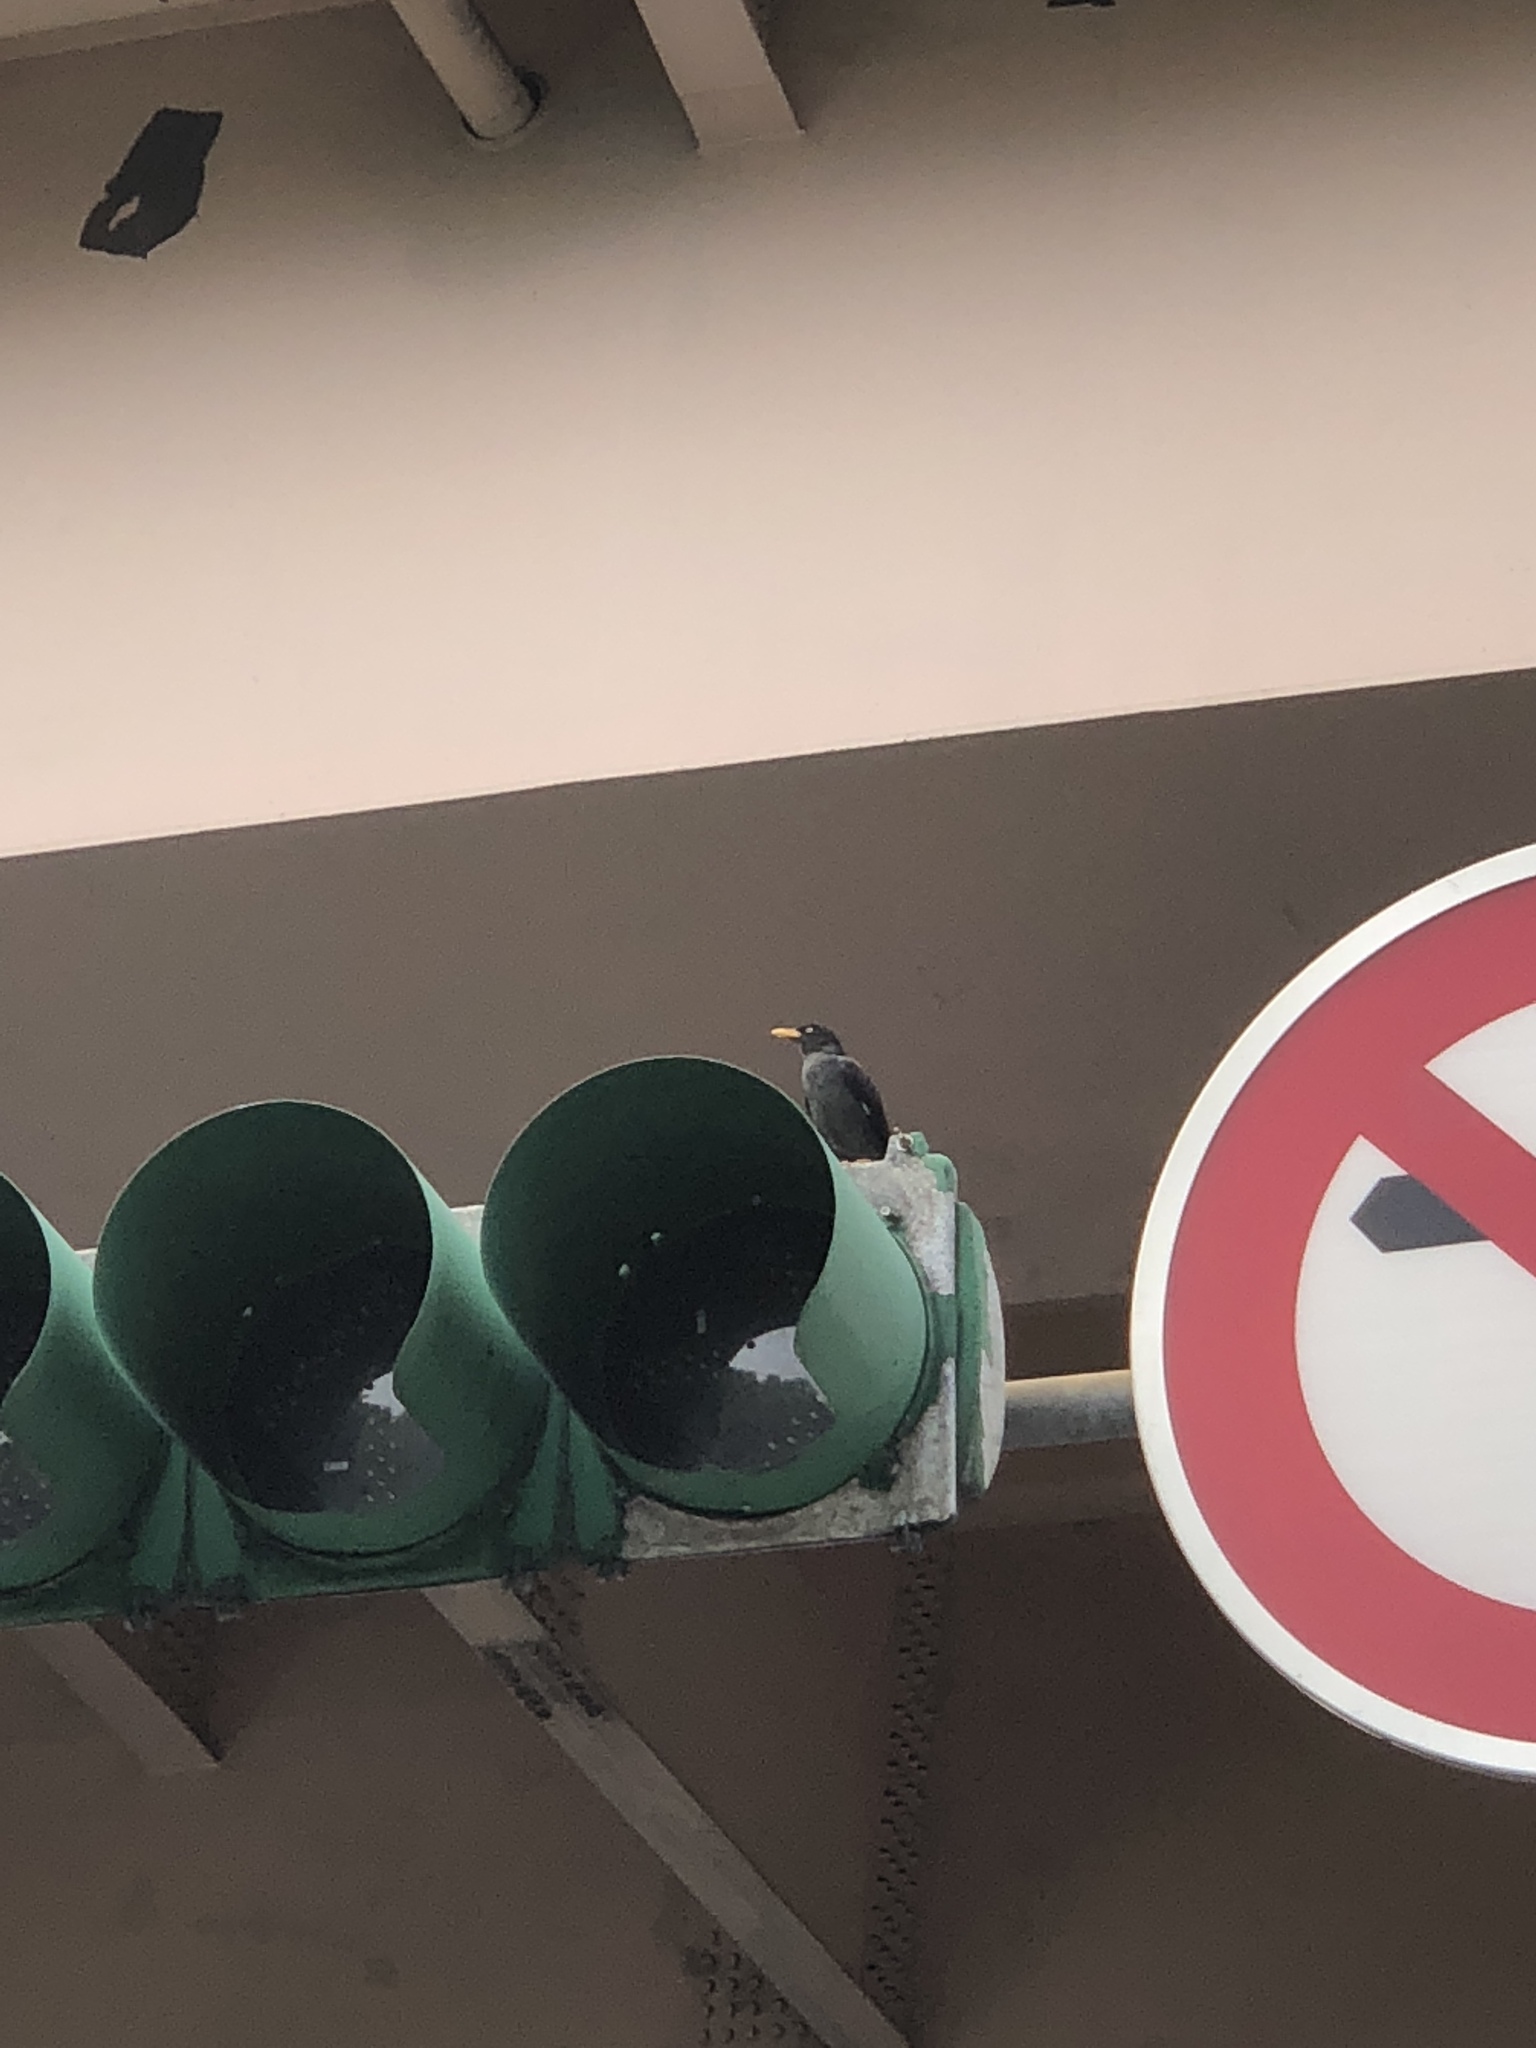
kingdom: Animalia
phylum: Chordata
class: Aves
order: Passeriformes
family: Sturnidae
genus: Acridotheres
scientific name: Acridotheres javanicus
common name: Javan myna
